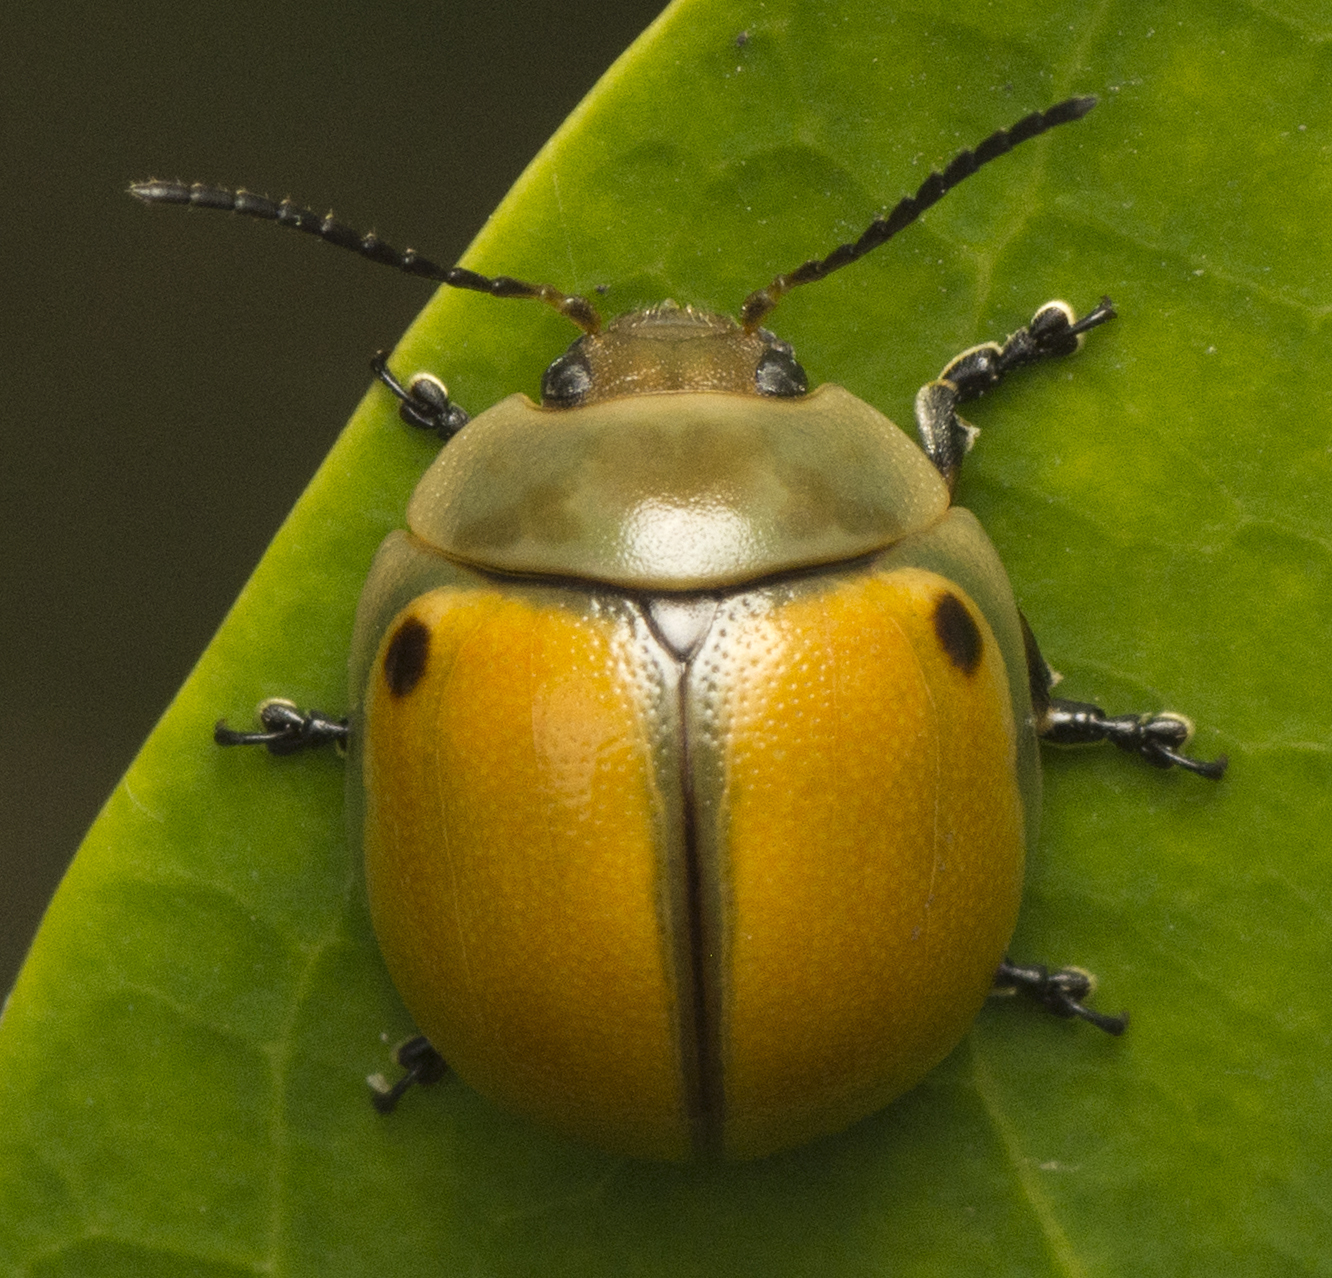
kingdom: Animalia
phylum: Arthropoda
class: Insecta
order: Coleoptera
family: Chrysomelidae
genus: Dicranosterna
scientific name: Dicranosterna
